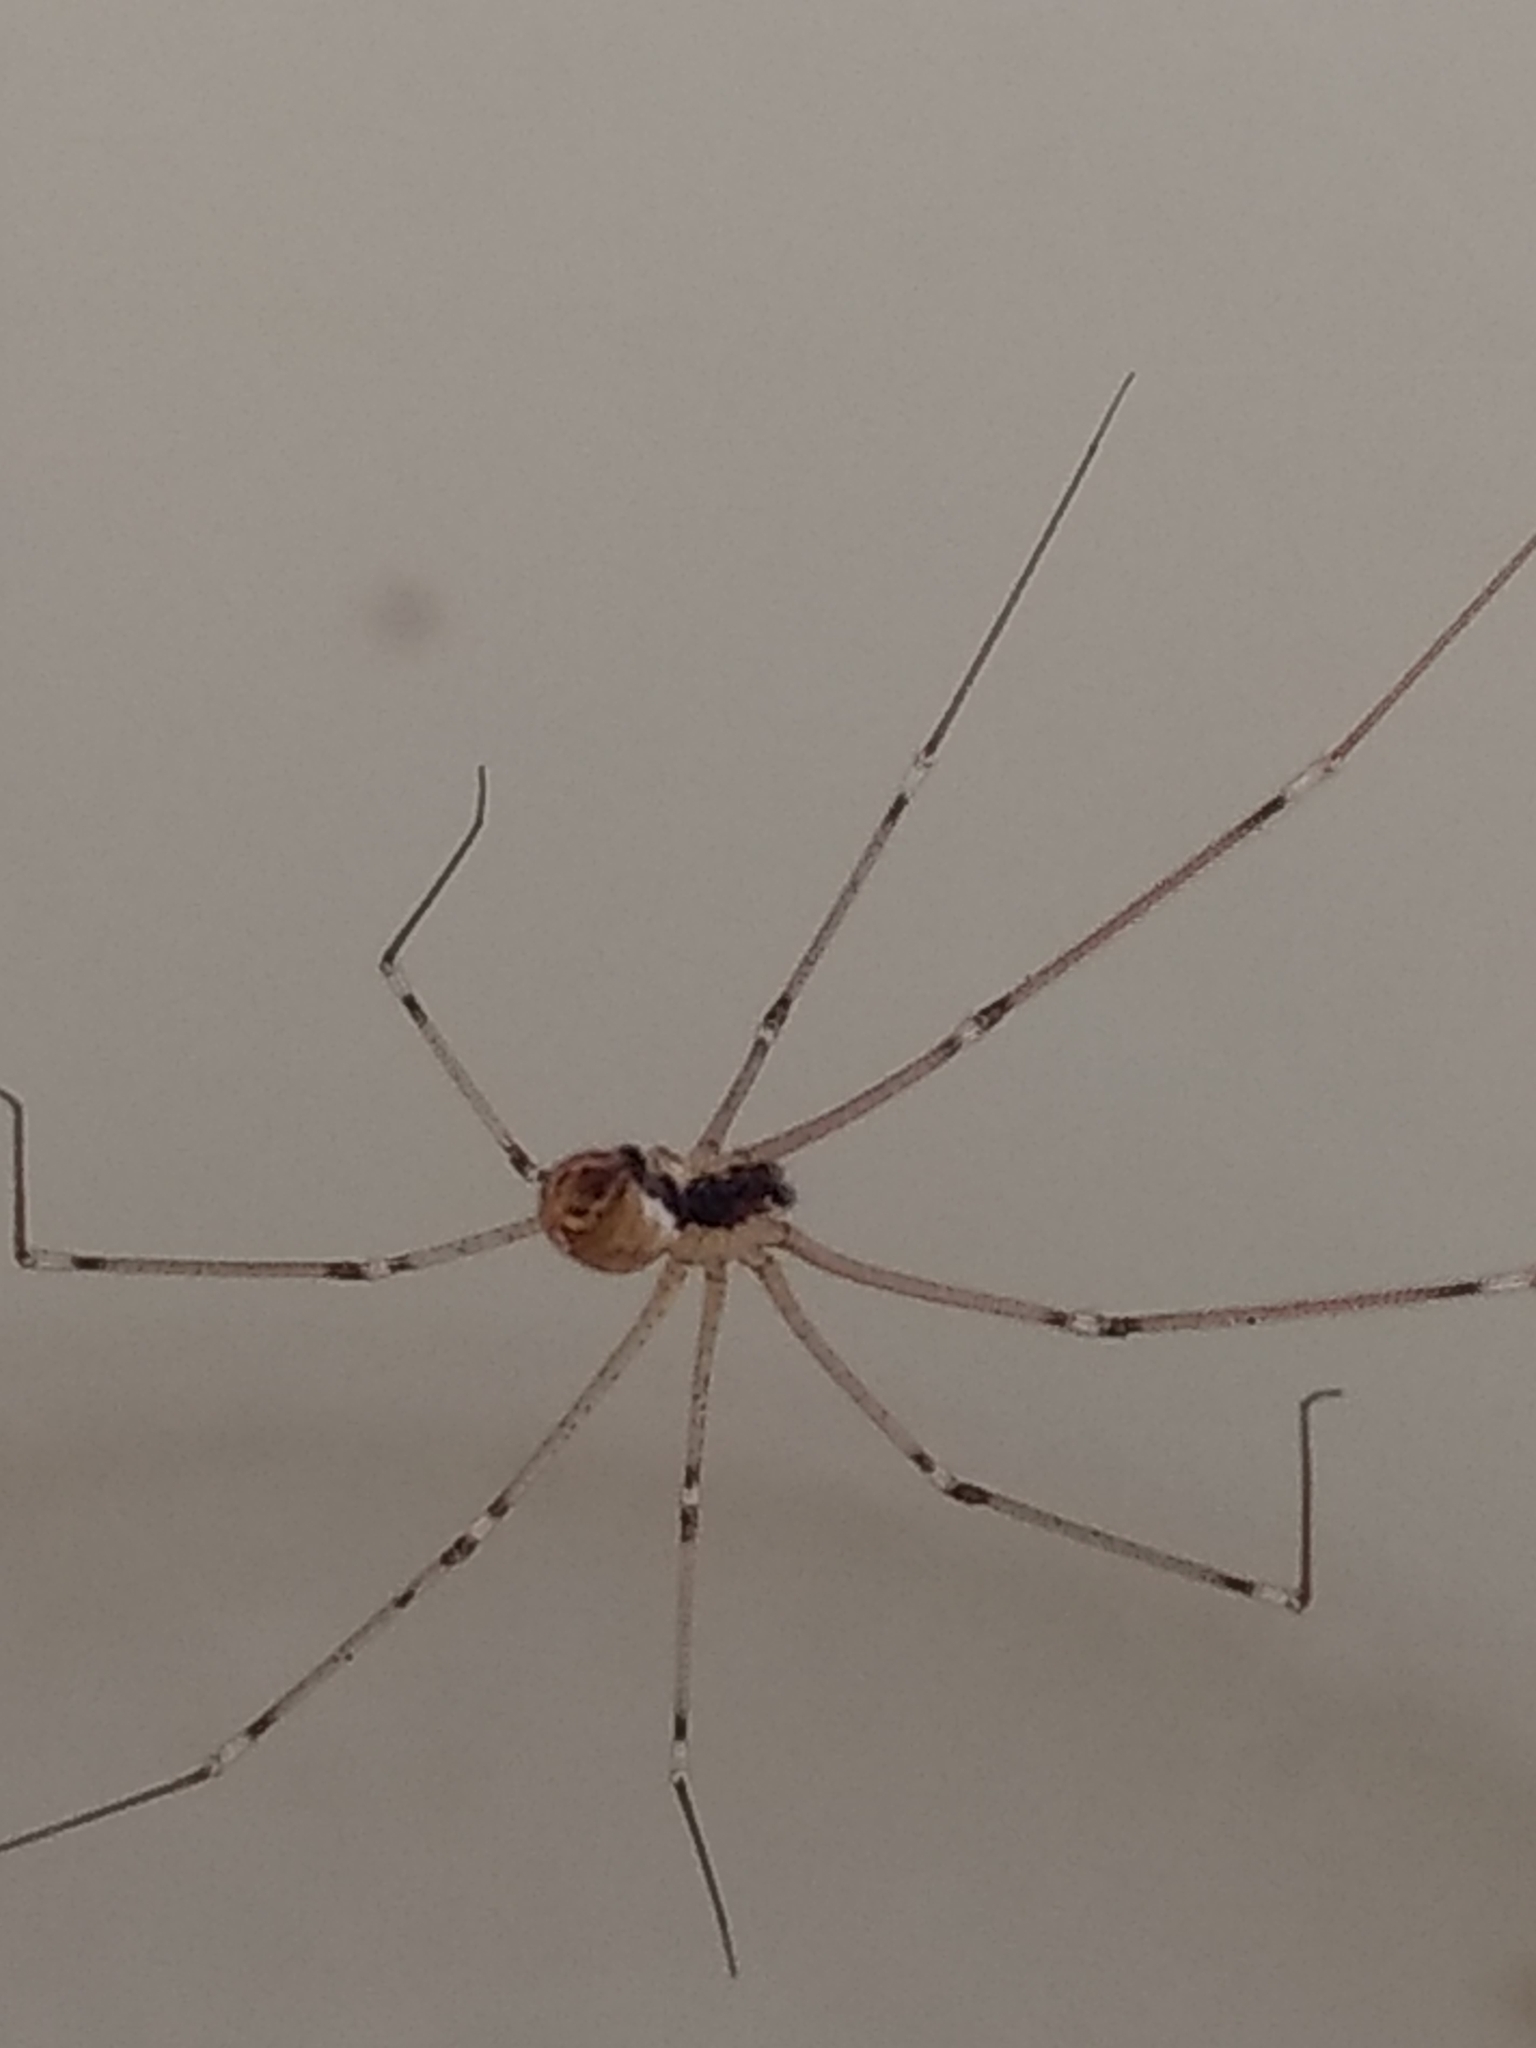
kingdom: Animalia
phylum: Arthropoda
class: Arachnida
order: Araneae
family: Pholcidae
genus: Holocnemus
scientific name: Holocnemus pluchei
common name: Marbled cellar spider
